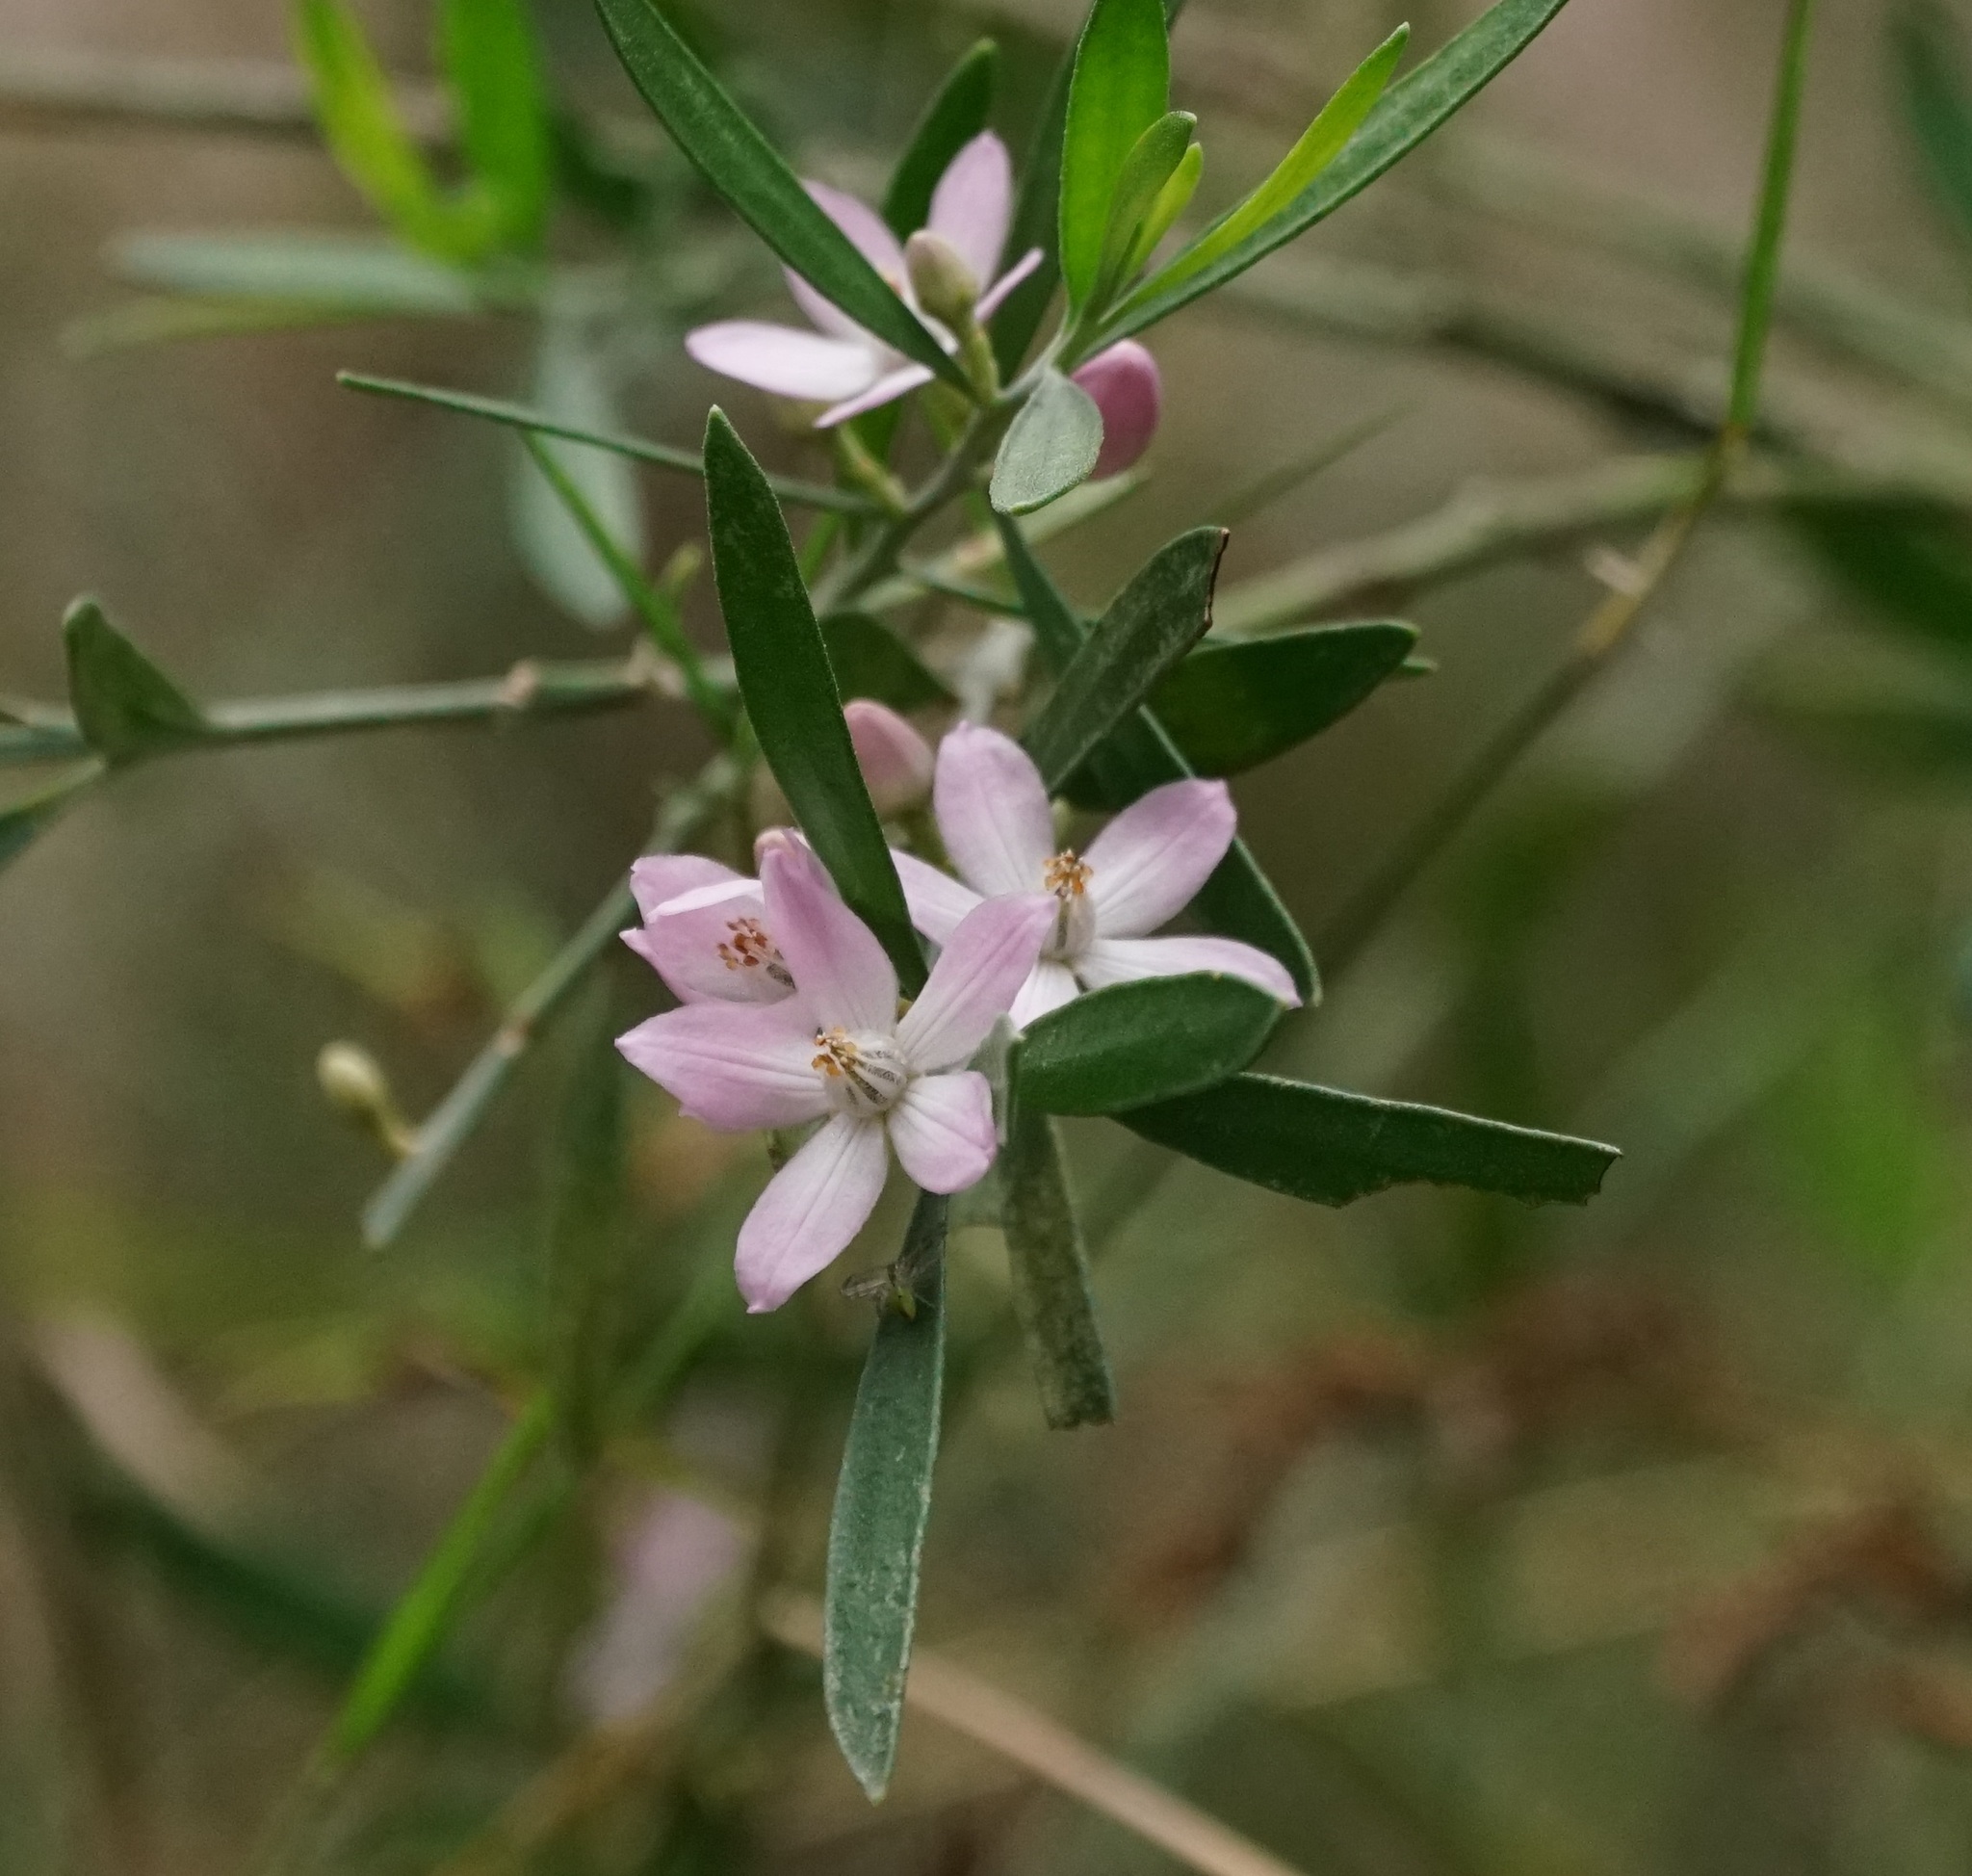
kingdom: Plantae
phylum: Tracheophyta
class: Magnoliopsida
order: Sapindales
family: Rutaceae
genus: Eriostemon
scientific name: Eriostemon australasius
